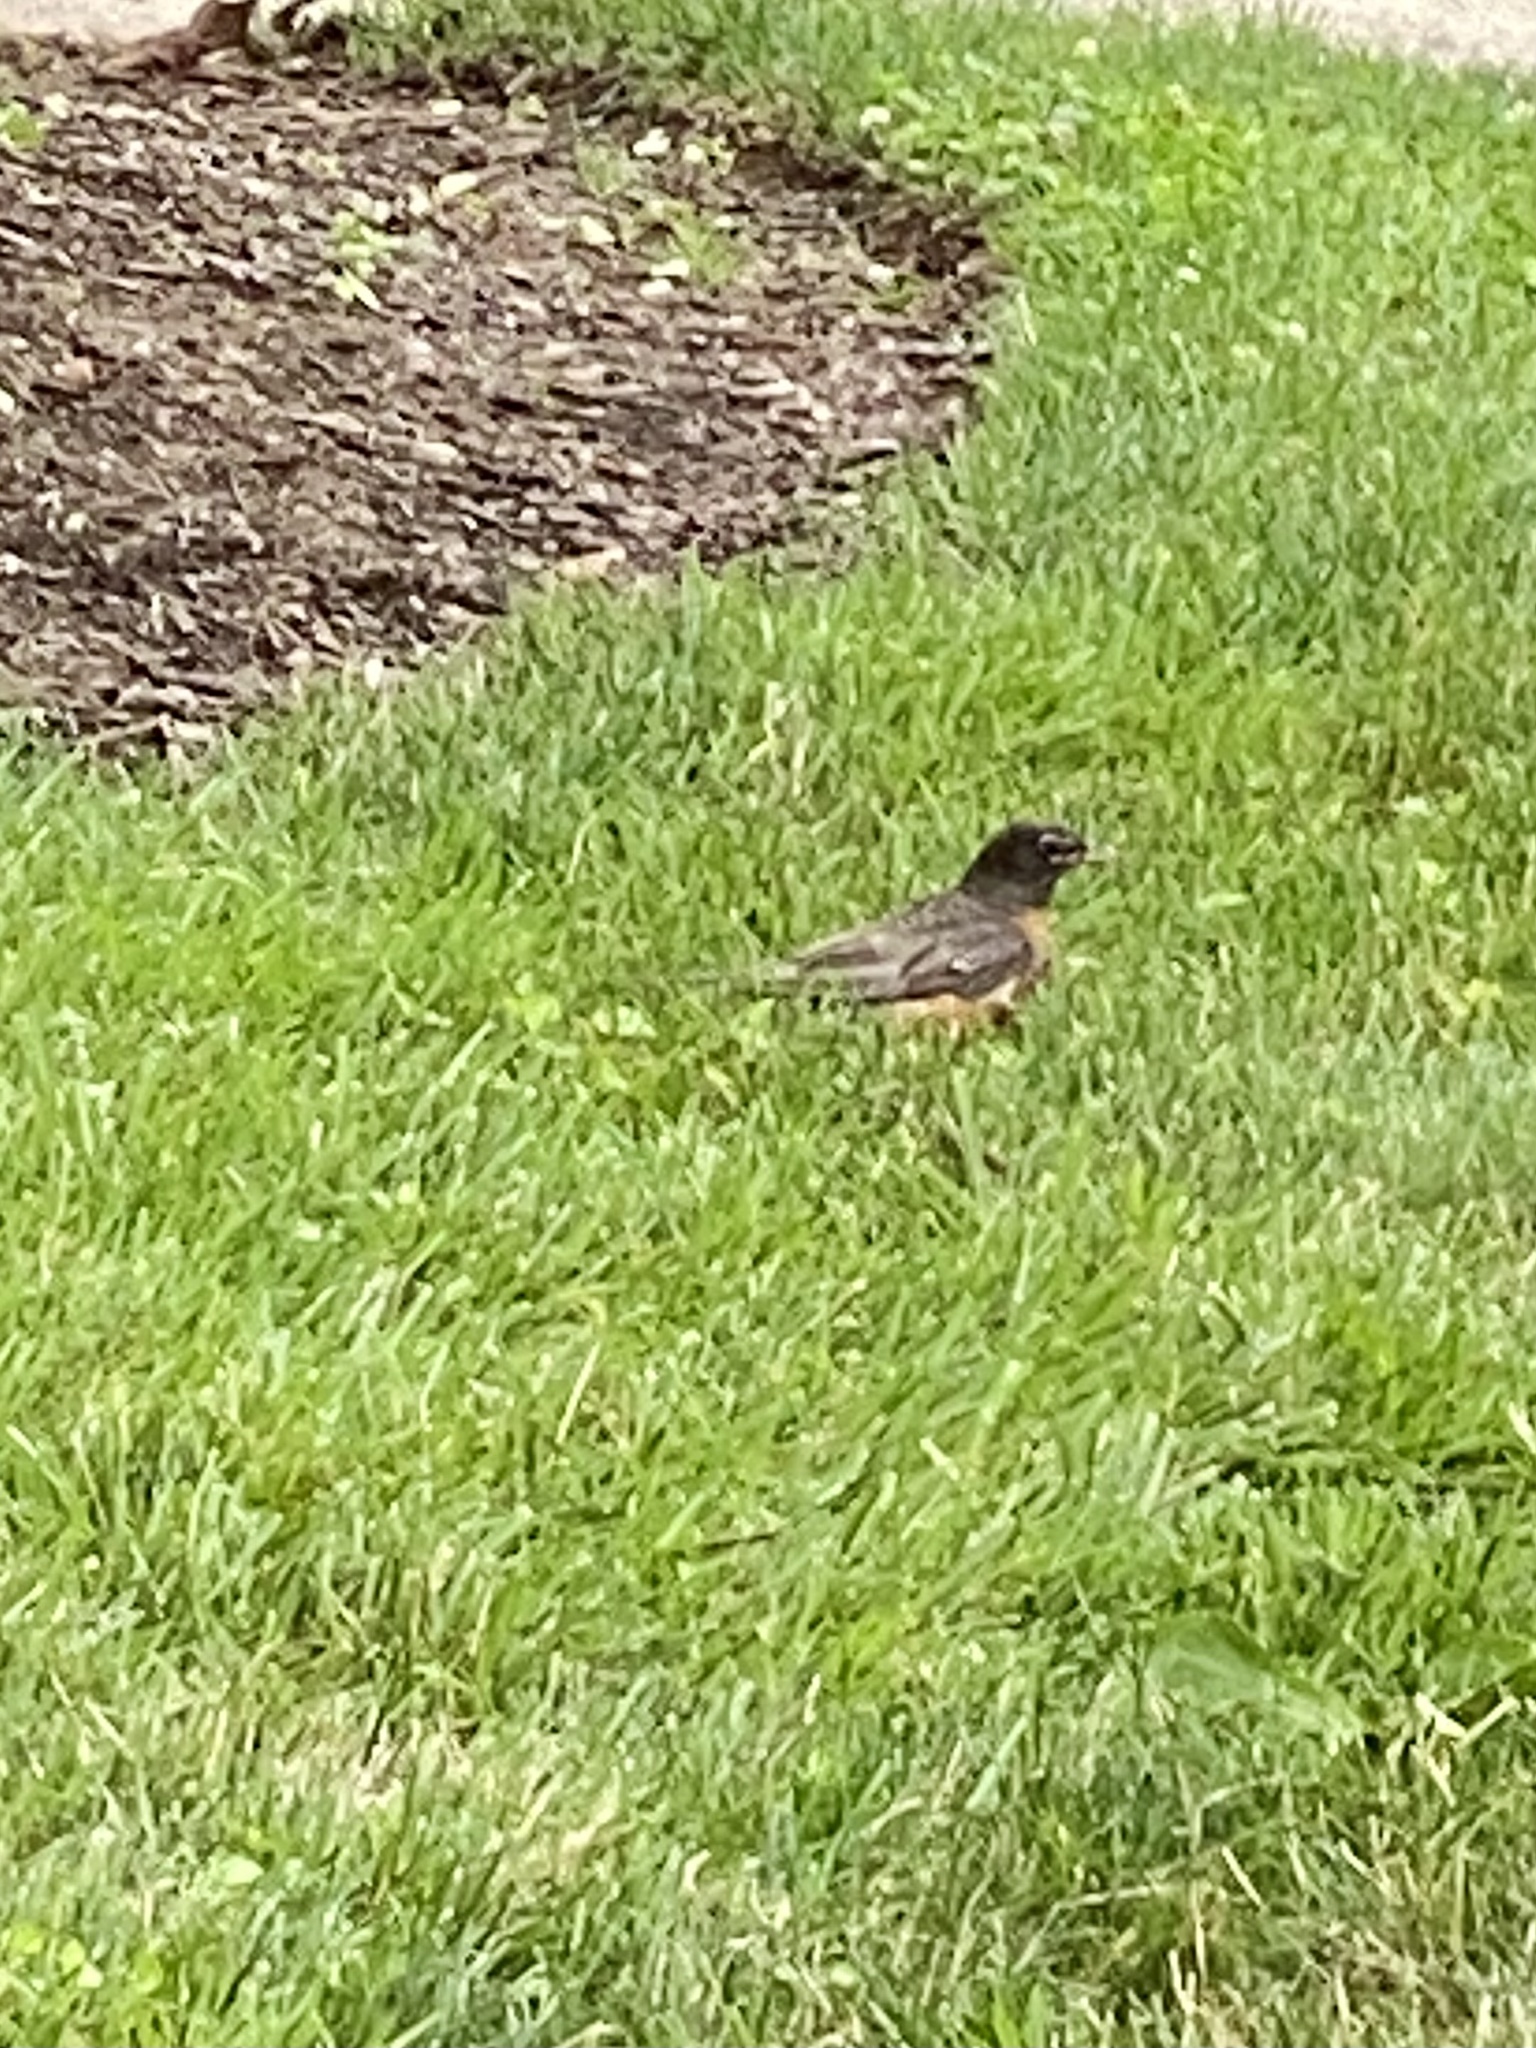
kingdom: Animalia
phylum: Chordata
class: Aves
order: Passeriformes
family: Turdidae
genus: Turdus
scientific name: Turdus migratorius
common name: American robin
